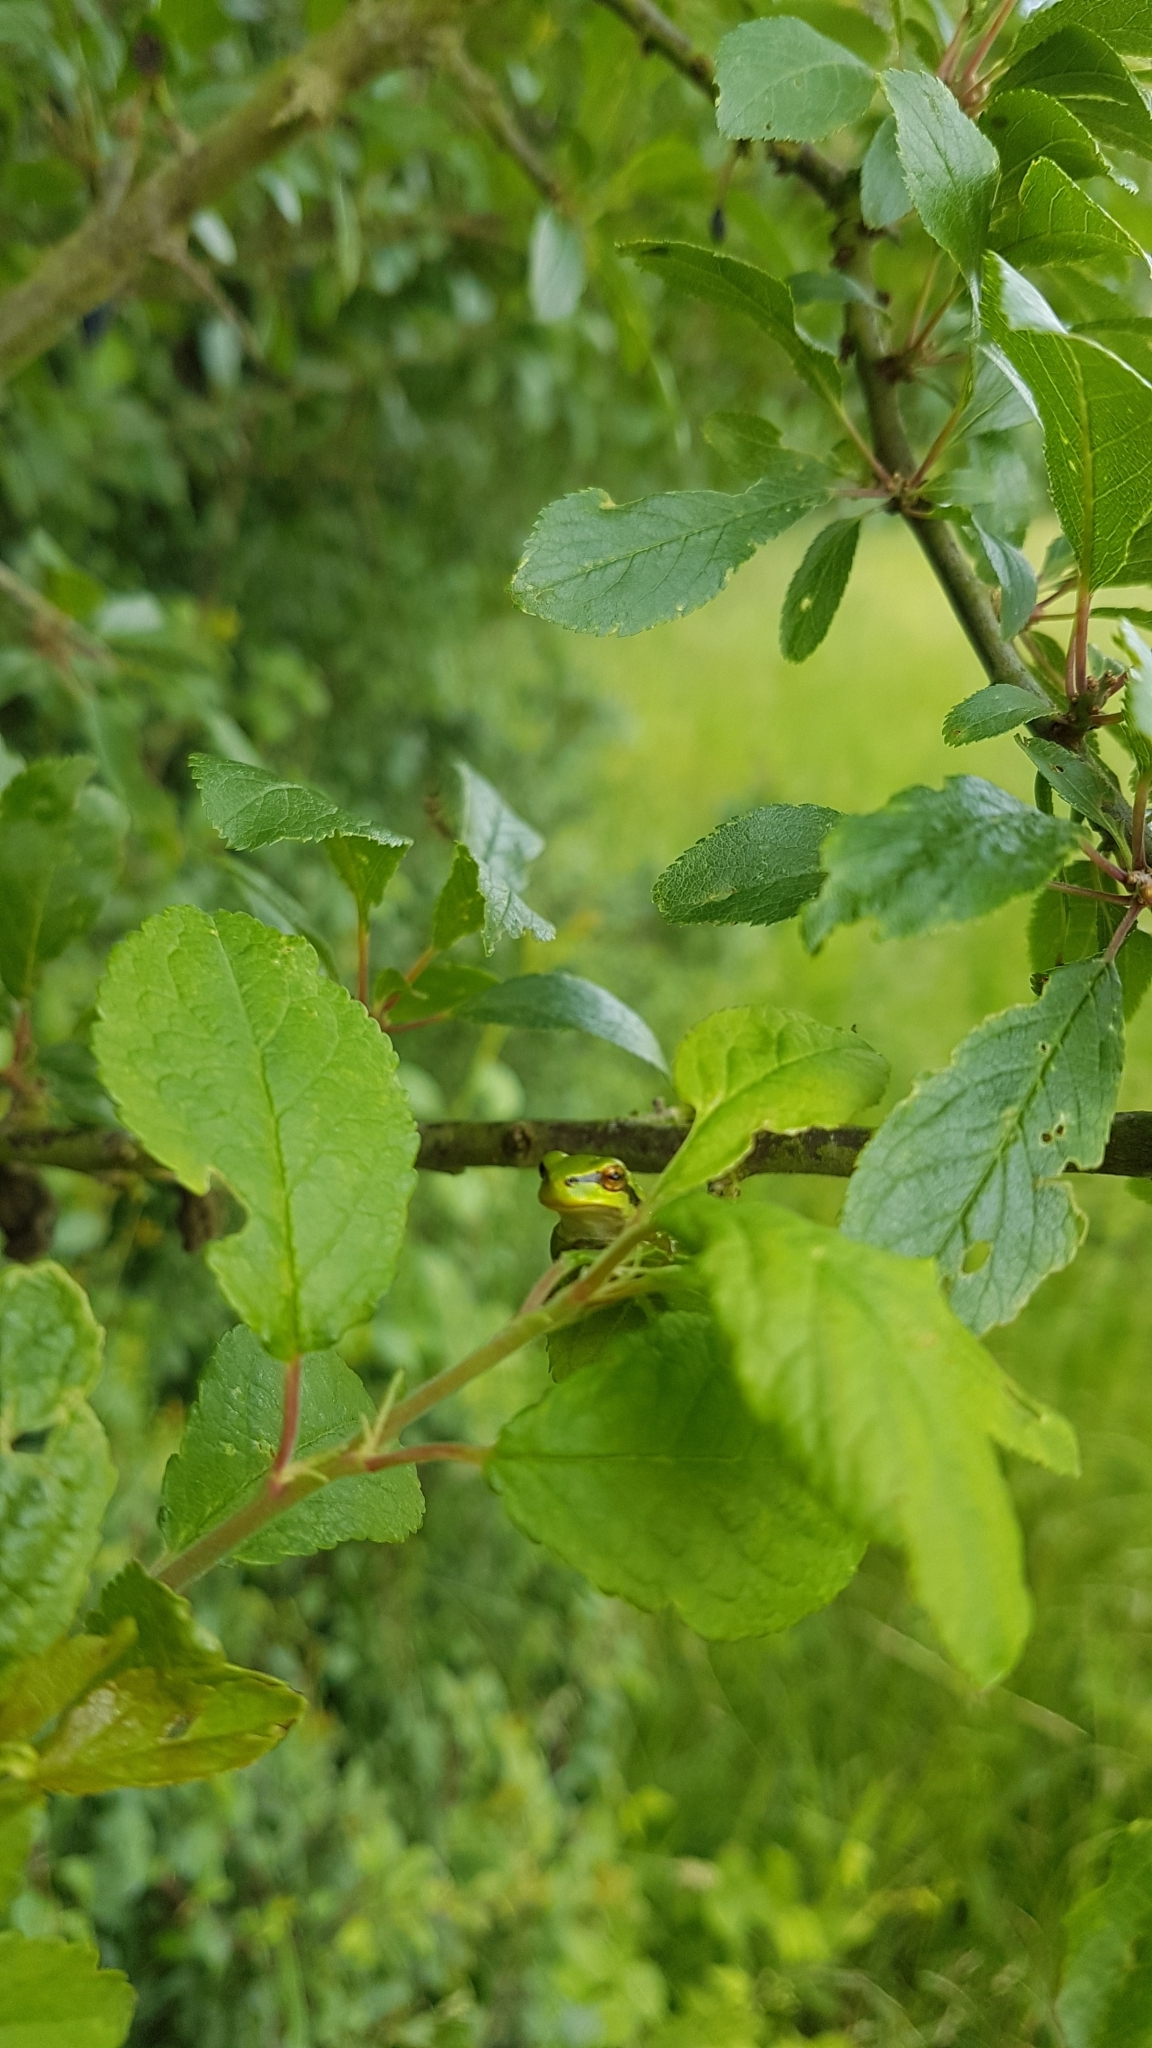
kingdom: Animalia
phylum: Chordata
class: Amphibia
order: Anura
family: Hylidae
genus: Hyla
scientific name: Hyla arborea
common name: Common tree frog
